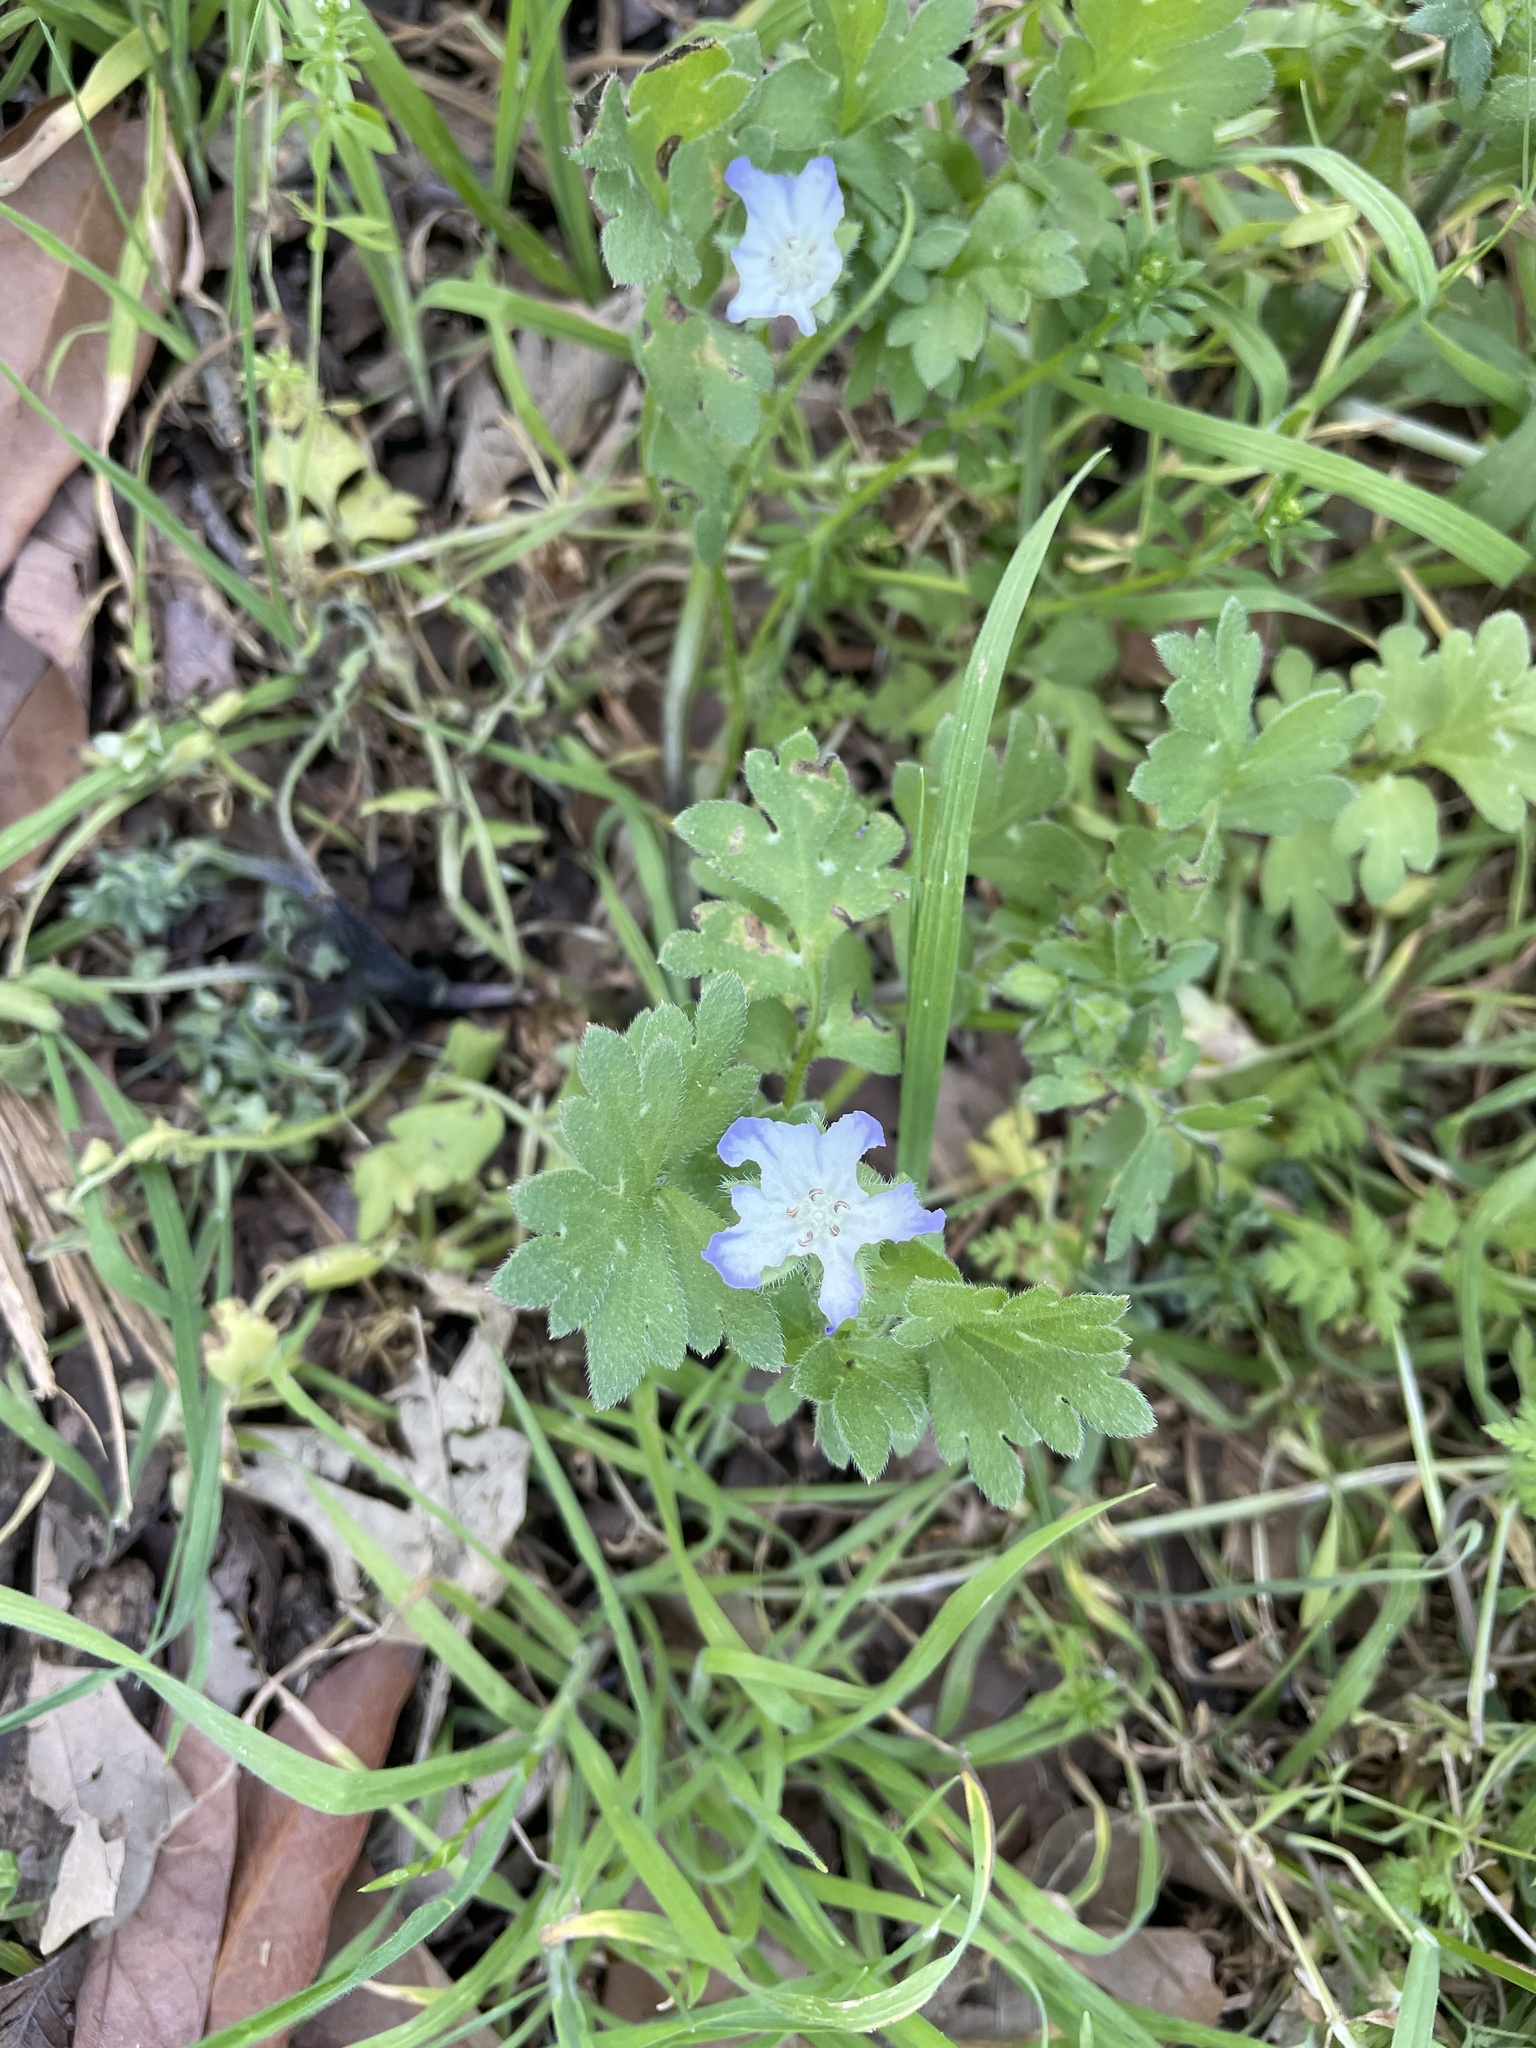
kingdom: Plantae
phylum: Tracheophyta
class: Magnoliopsida
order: Boraginales
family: Hydrophyllaceae
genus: Nemophila
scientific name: Nemophila phacelioides
